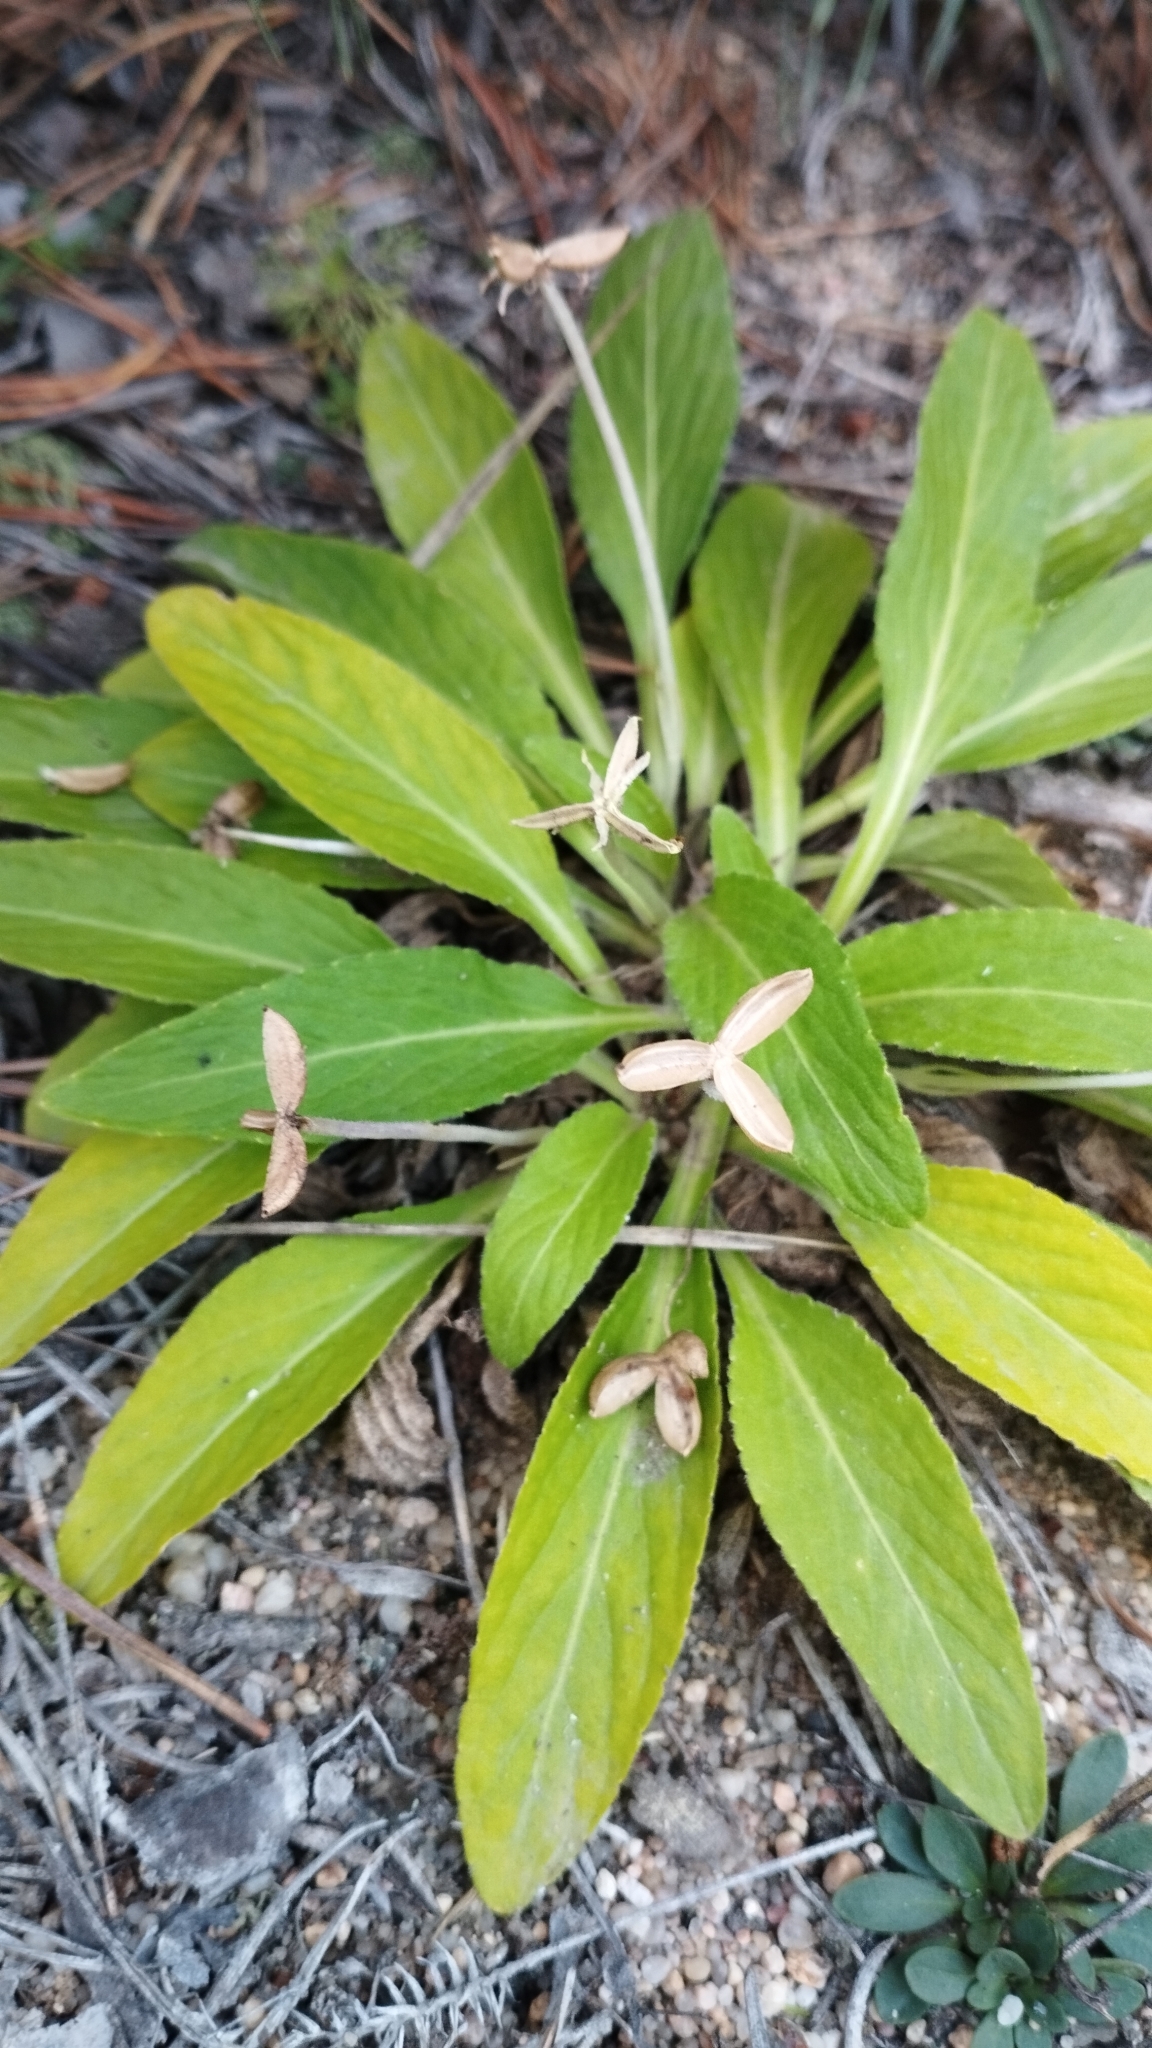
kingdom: Plantae
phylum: Tracheophyta
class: Magnoliopsida
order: Malpighiales
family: Violaceae
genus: Viola
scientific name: Viola gmeliniana
